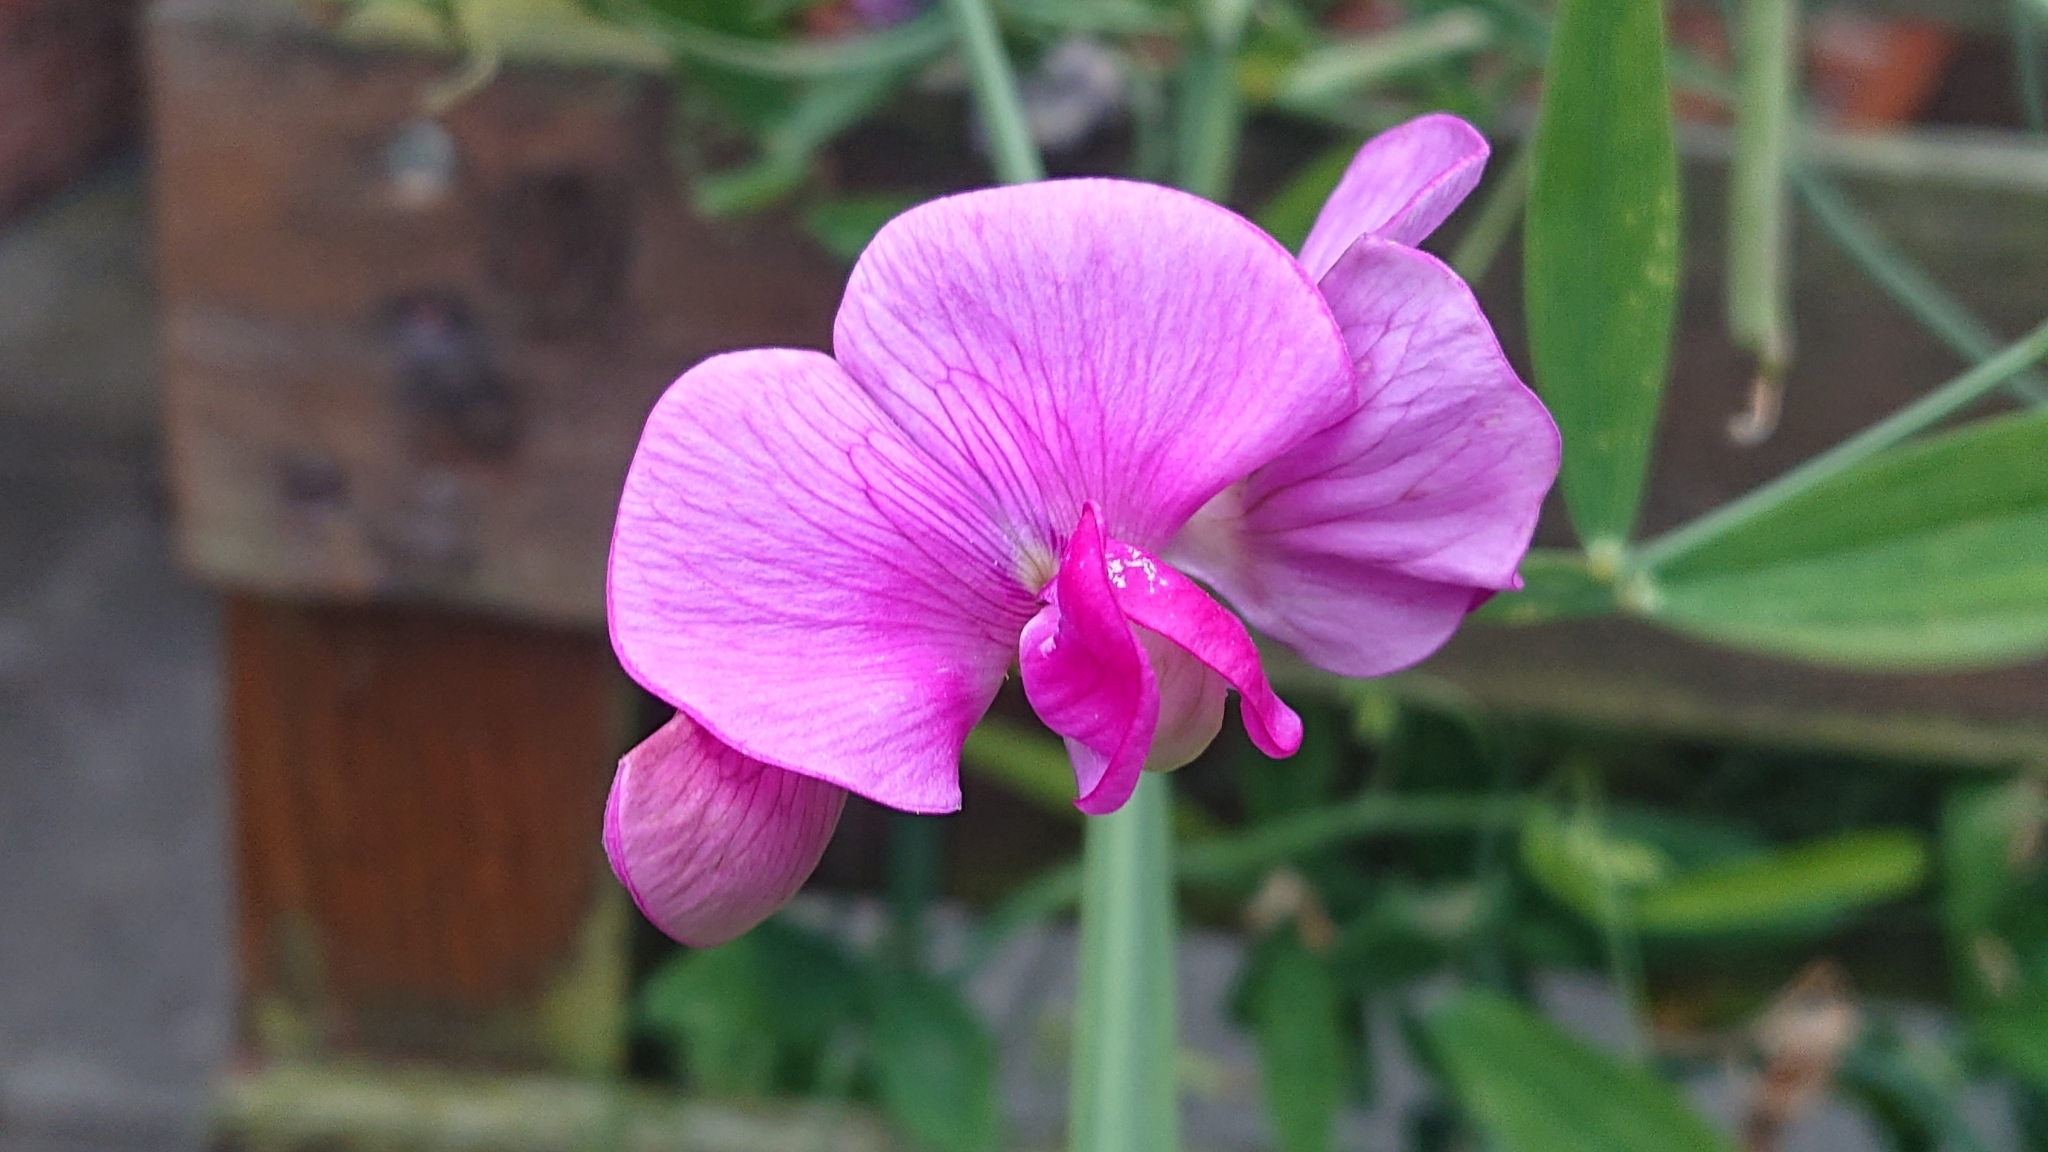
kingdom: Plantae
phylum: Tracheophyta
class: Magnoliopsida
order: Fabales
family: Fabaceae
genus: Lathyrus
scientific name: Lathyrus latifolius
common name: Perennial pea
